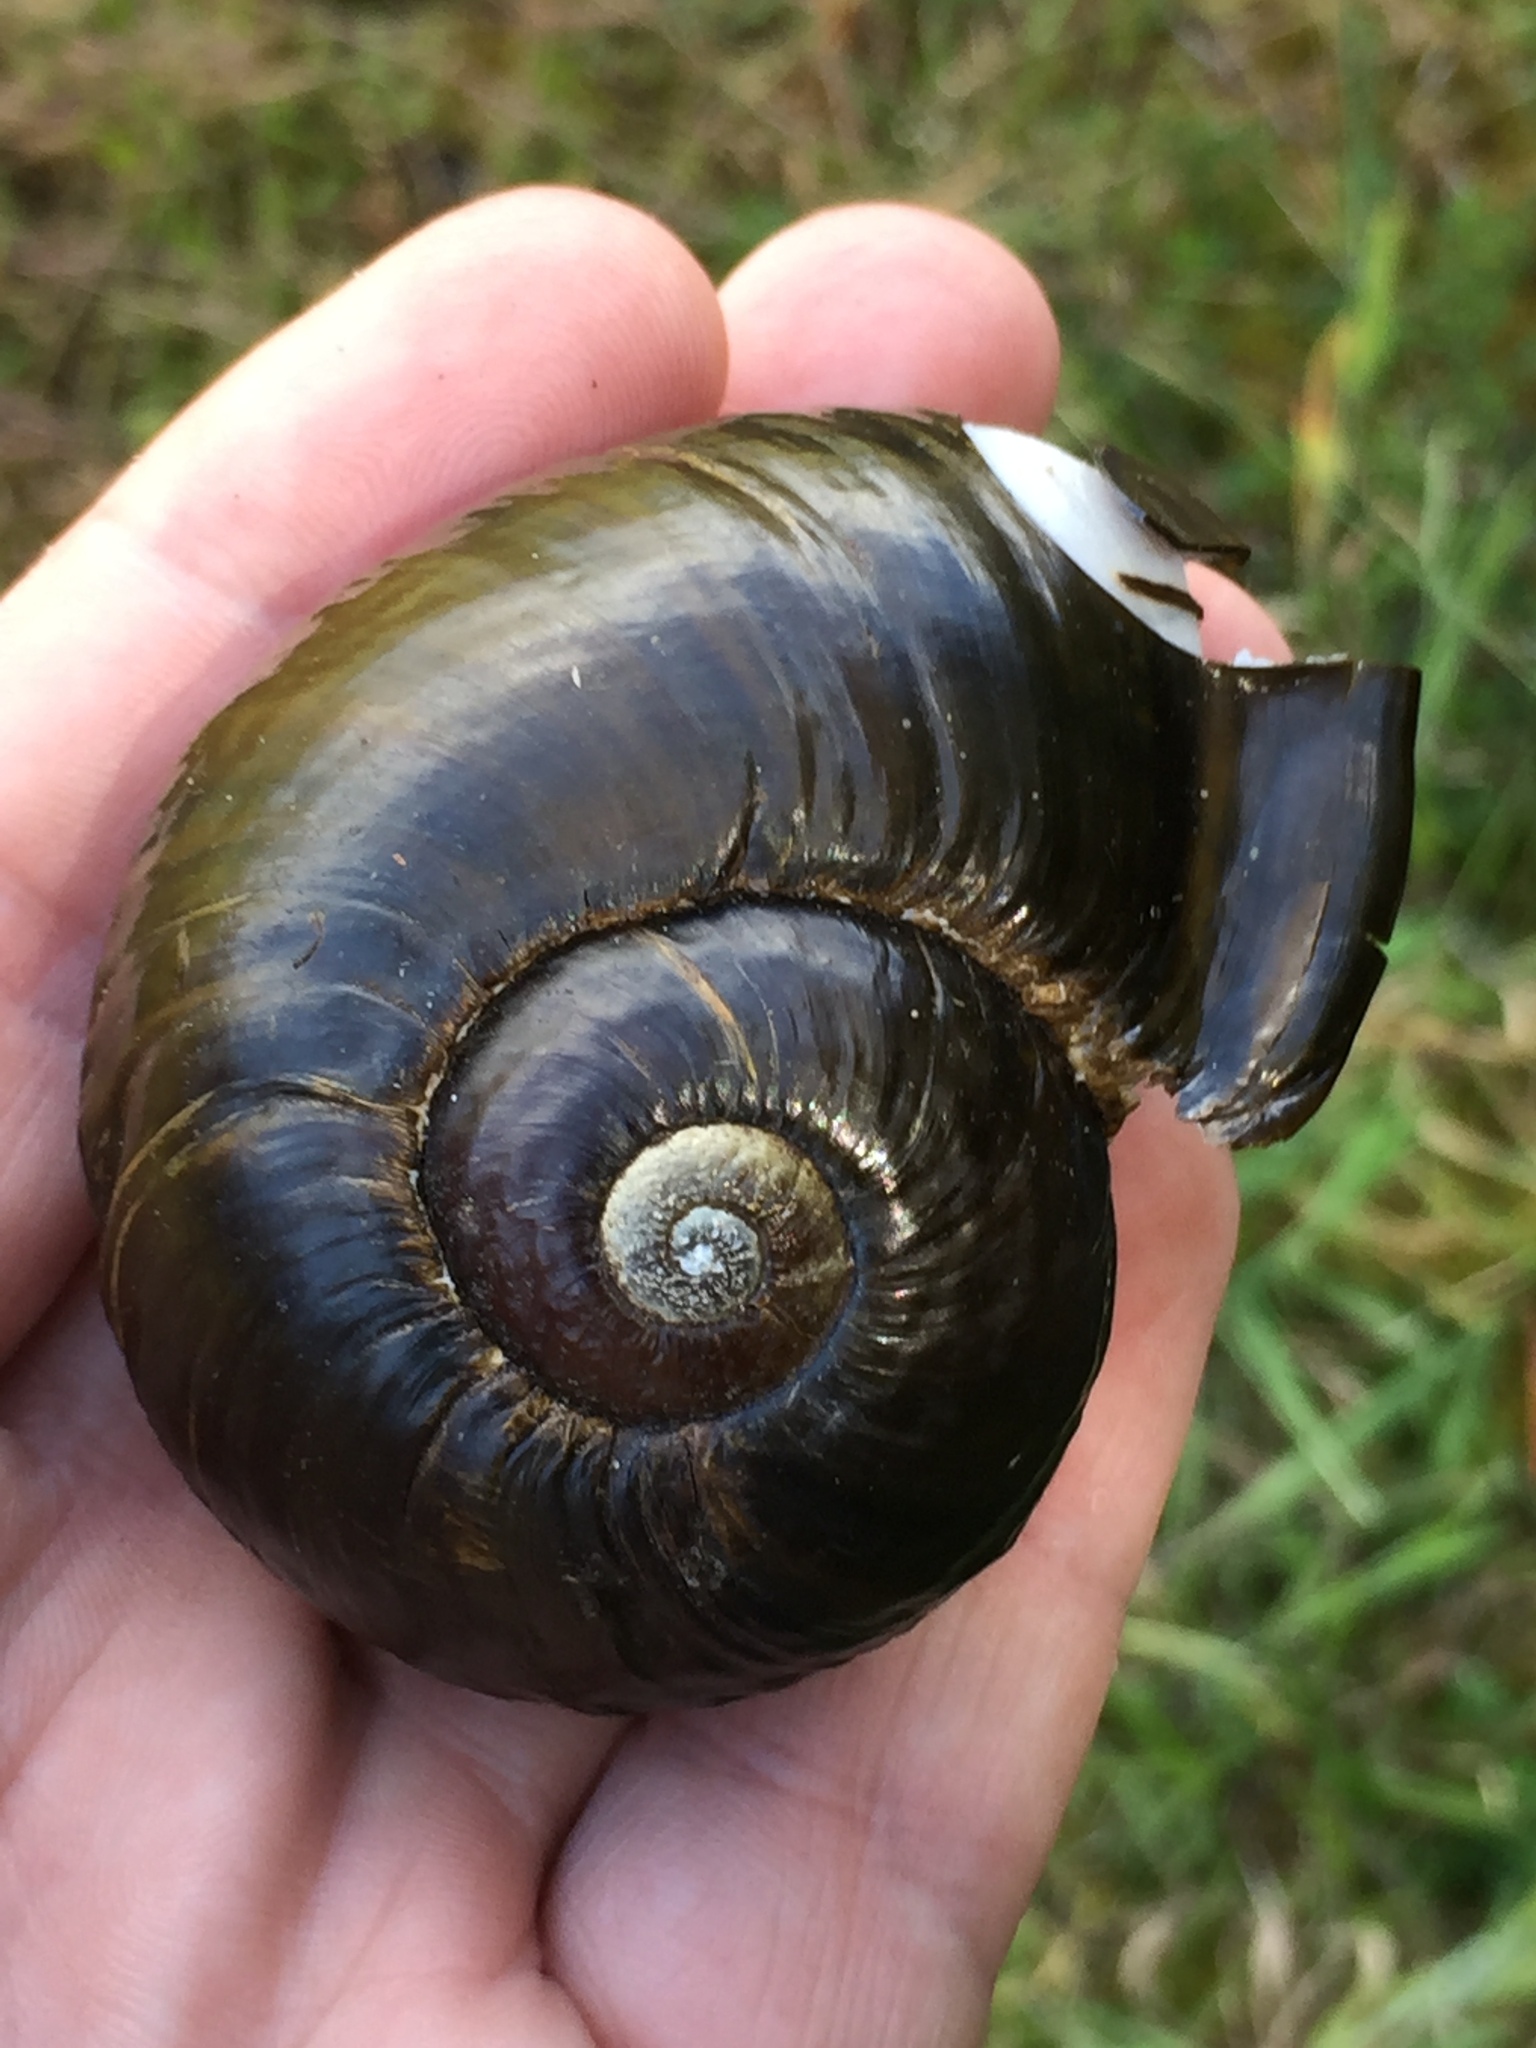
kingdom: Animalia
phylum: Mollusca
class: Gastropoda
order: Stylommatophora
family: Rhytididae
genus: Paryphanta
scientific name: Paryphanta busbyi
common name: Kauri snail
